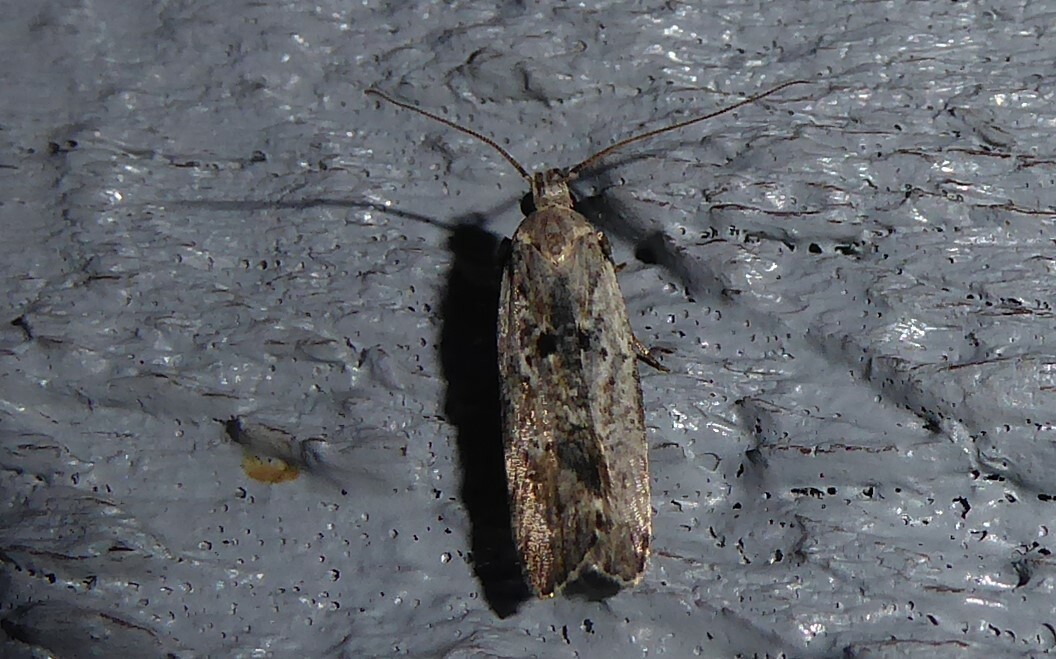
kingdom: Animalia
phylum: Arthropoda
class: Insecta
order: Lepidoptera
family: Gelechiidae
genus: Anisoplaca
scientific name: Anisoplaca achyrota
